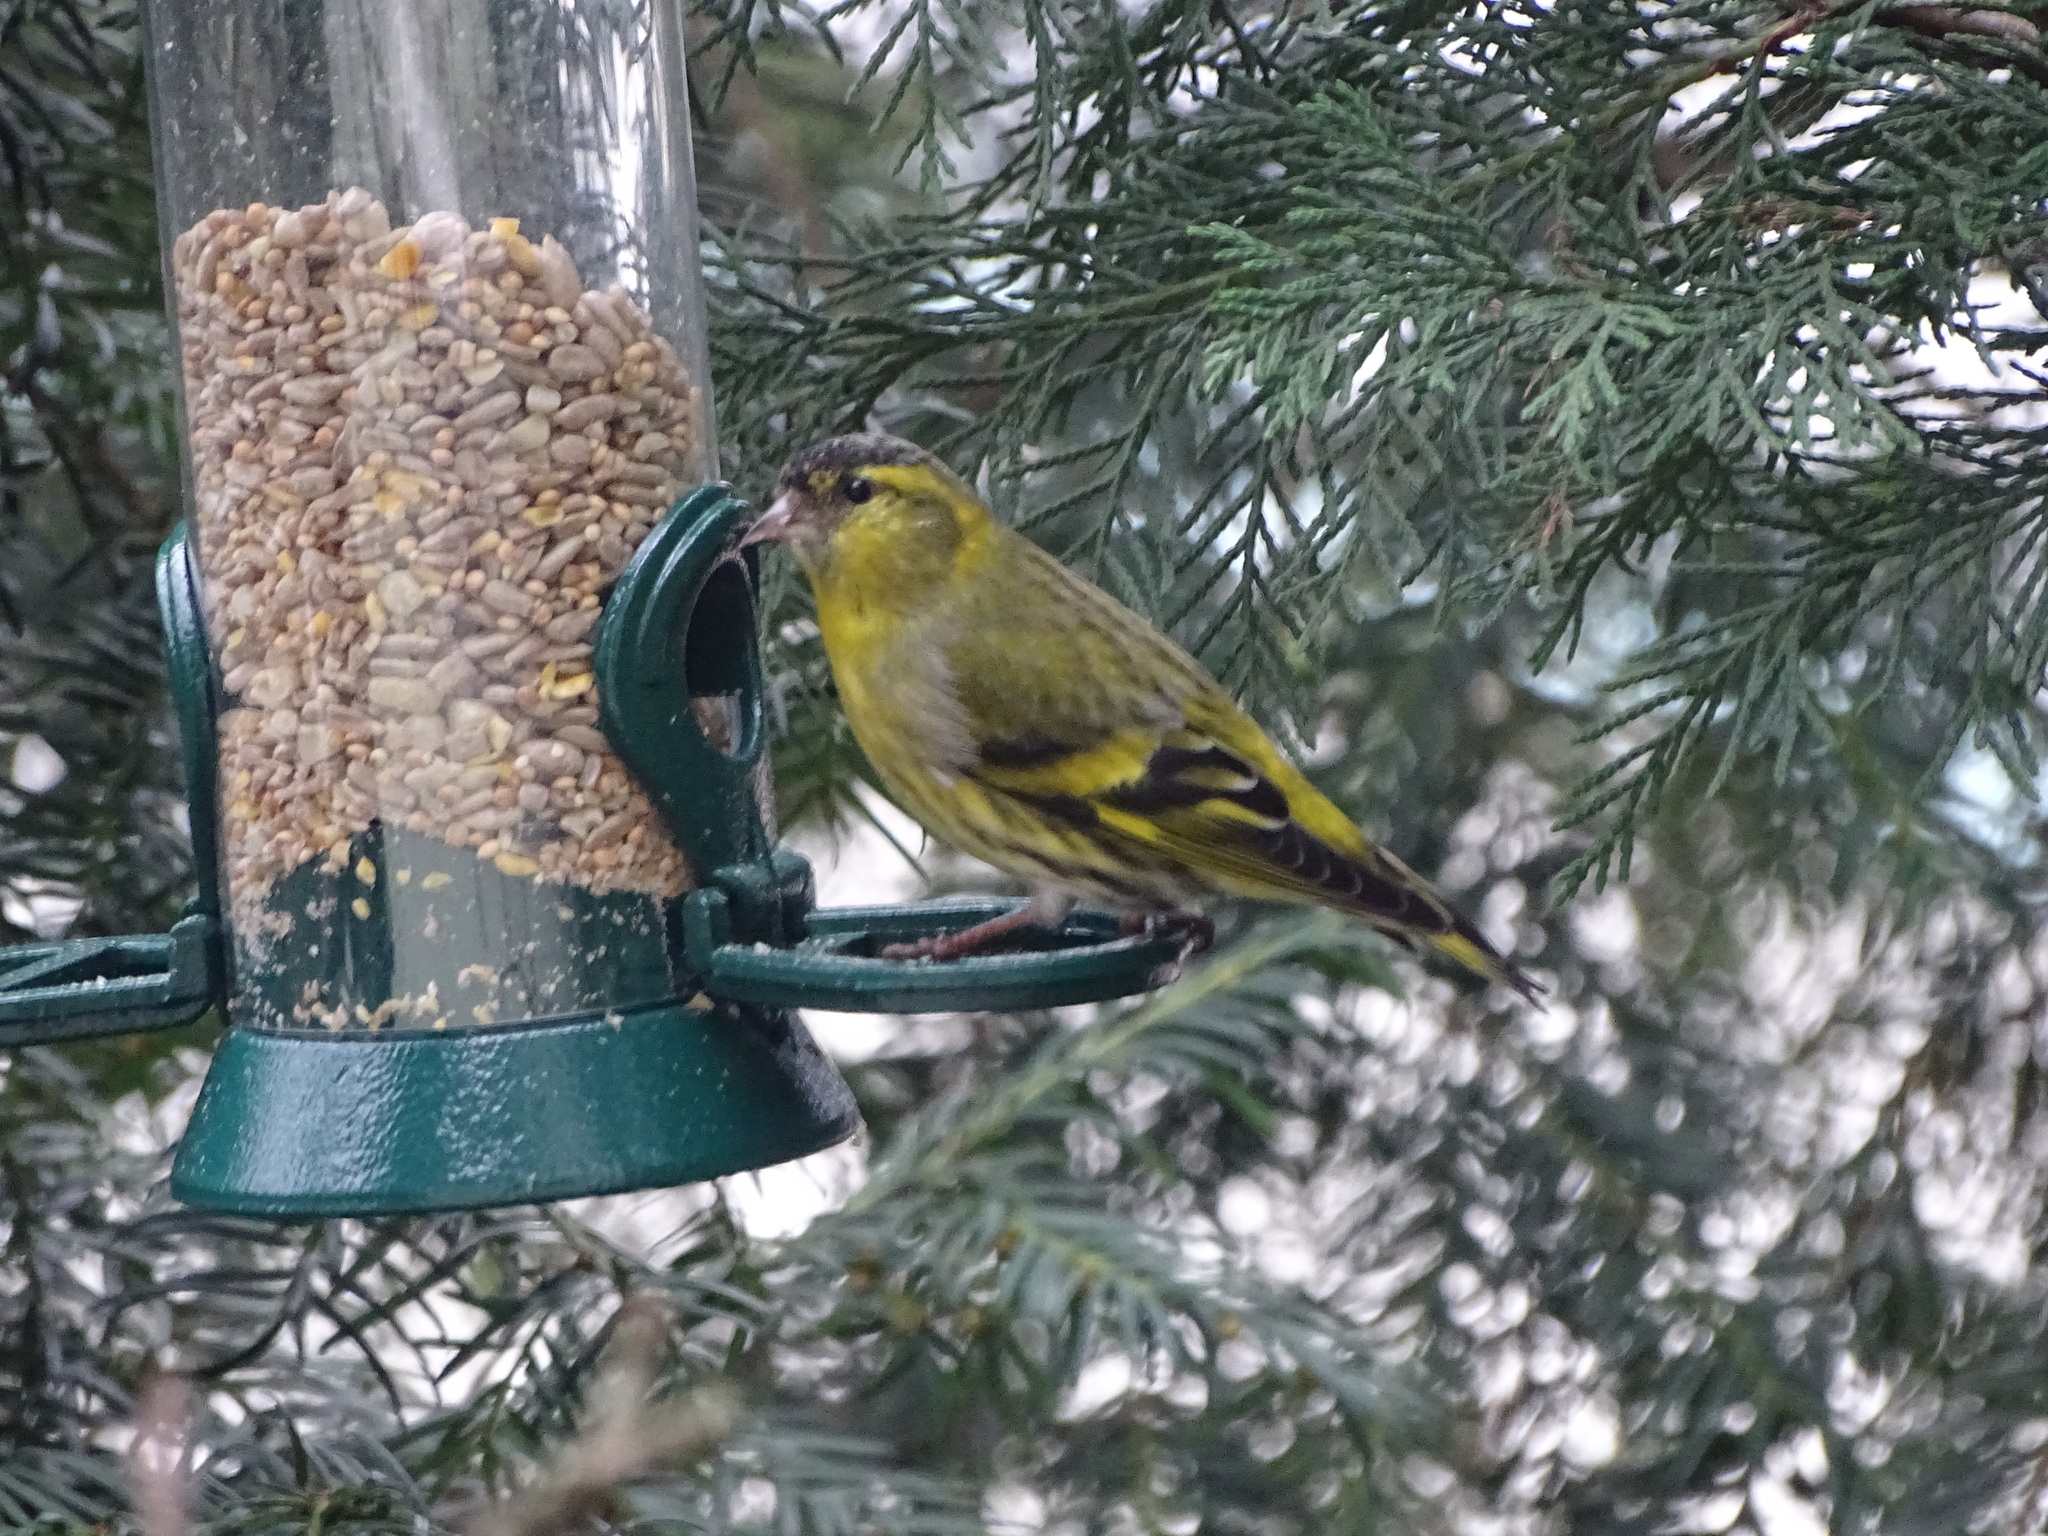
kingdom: Animalia
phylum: Chordata
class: Aves
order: Passeriformes
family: Fringillidae
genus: Spinus
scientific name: Spinus spinus
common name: Eurasian siskin
